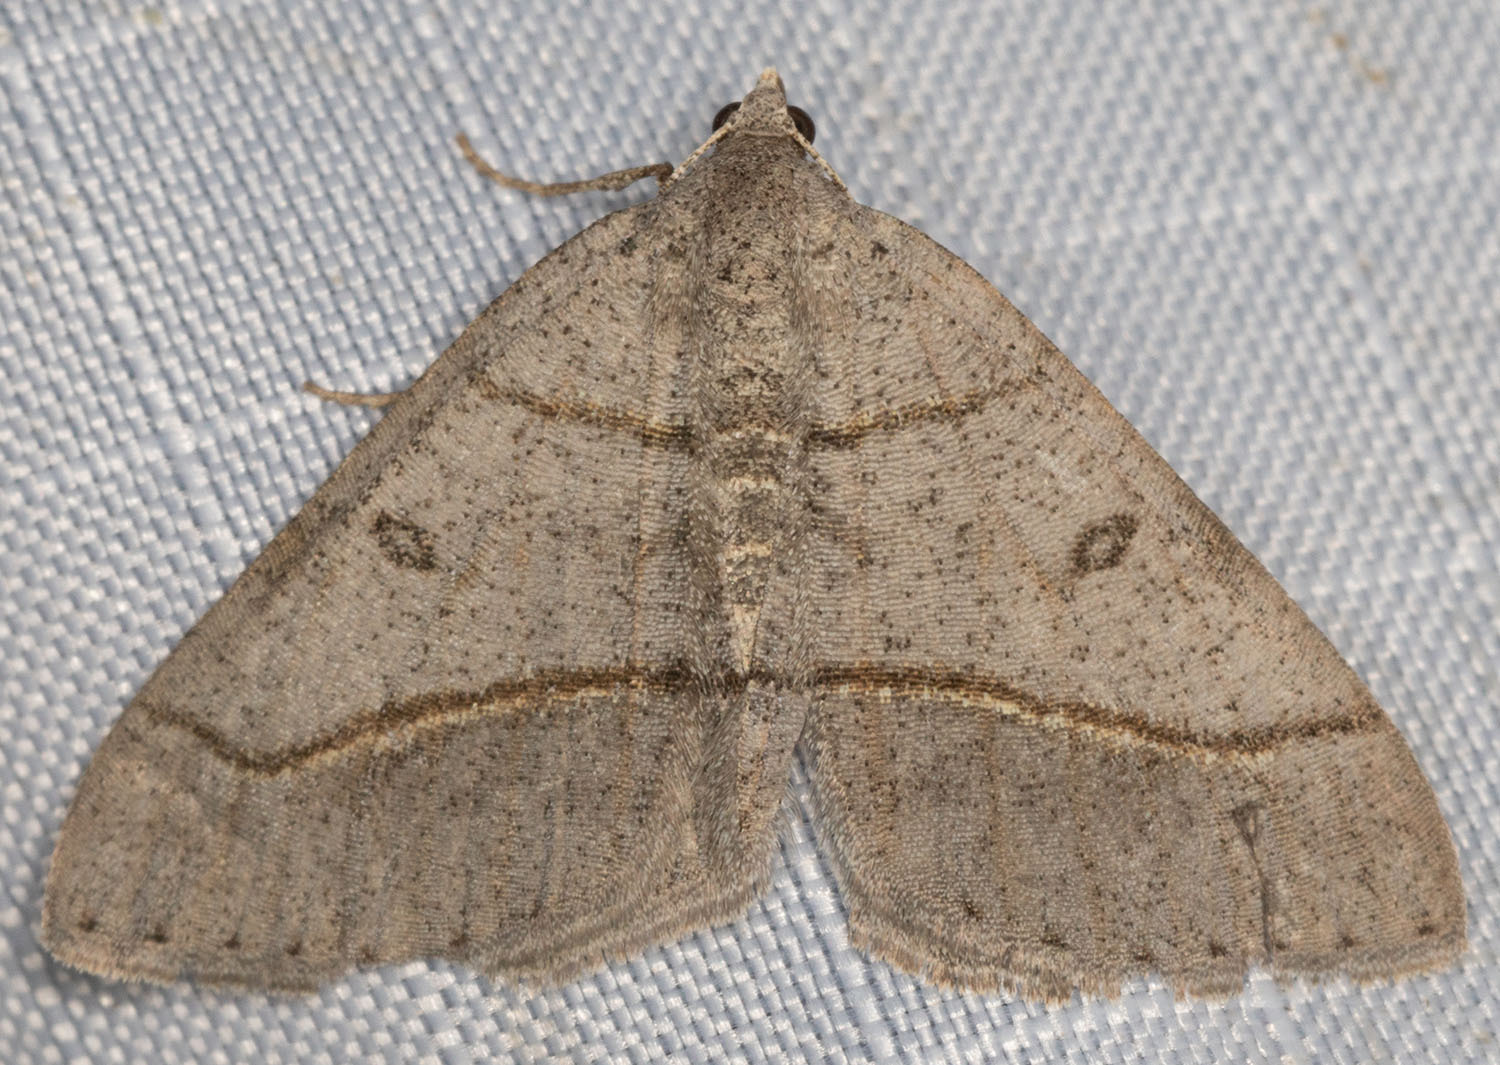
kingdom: Animalia
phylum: Arthropoda
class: Insecta
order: Lepidoptera
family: Geometridae
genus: Digrammia
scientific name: Digrammia neptaria
